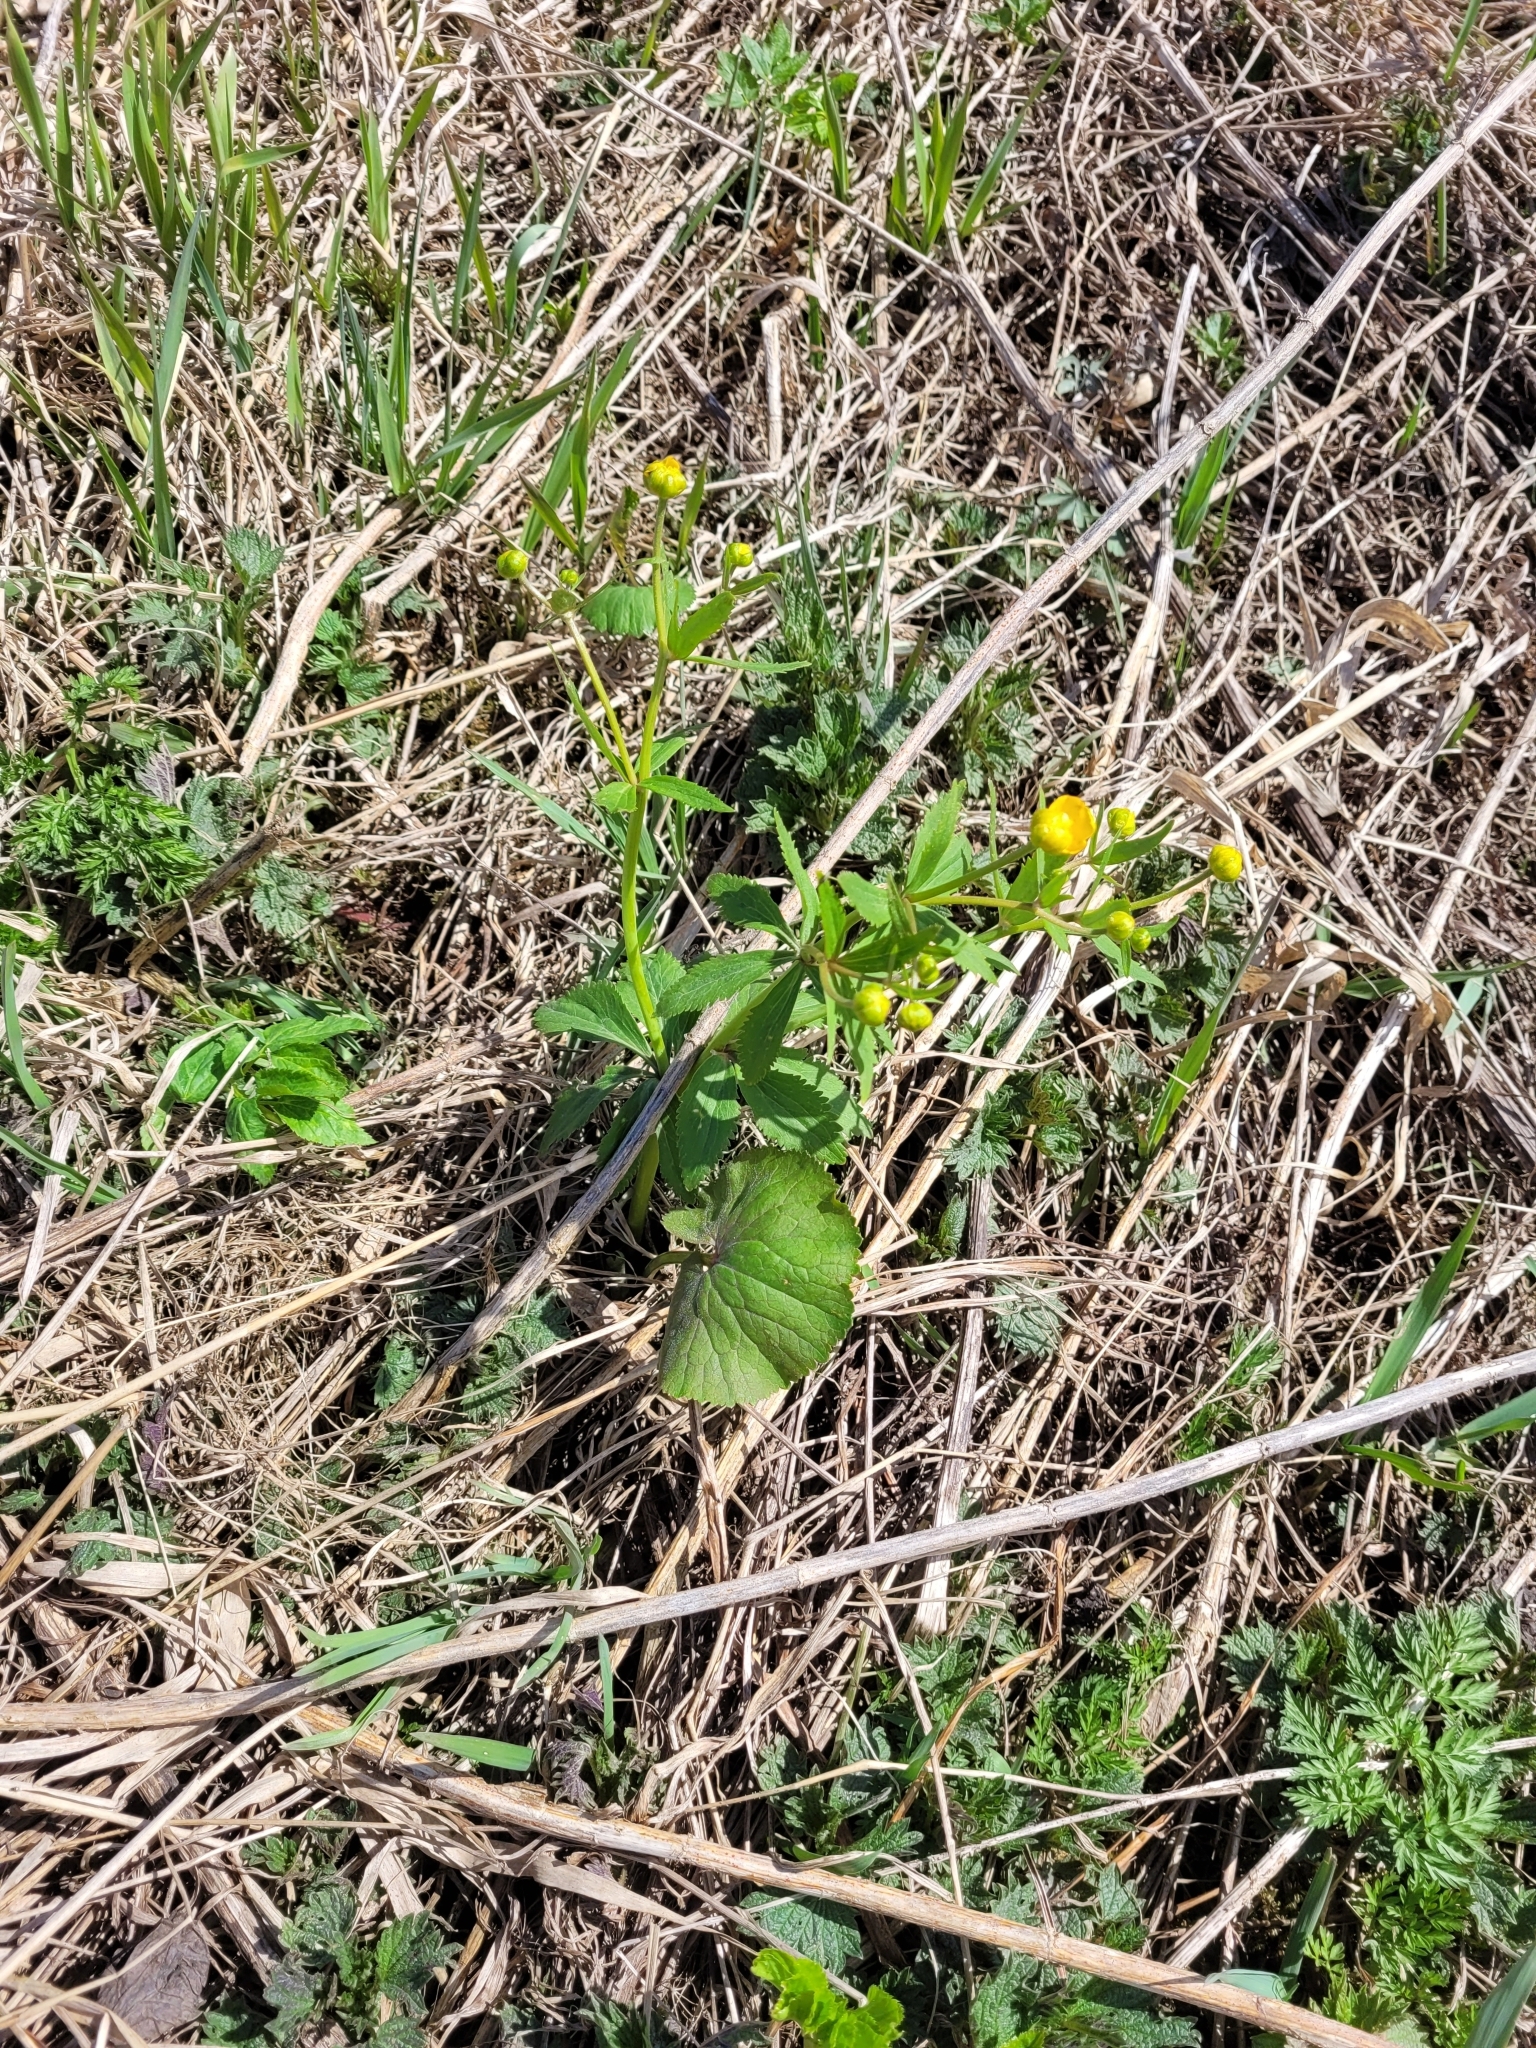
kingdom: Plantae
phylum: Tracheophyta
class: Magnoliopsida
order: Ranunculales
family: Ranunculaceae
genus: Ranunculus
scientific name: Ranunculus cassubicus
